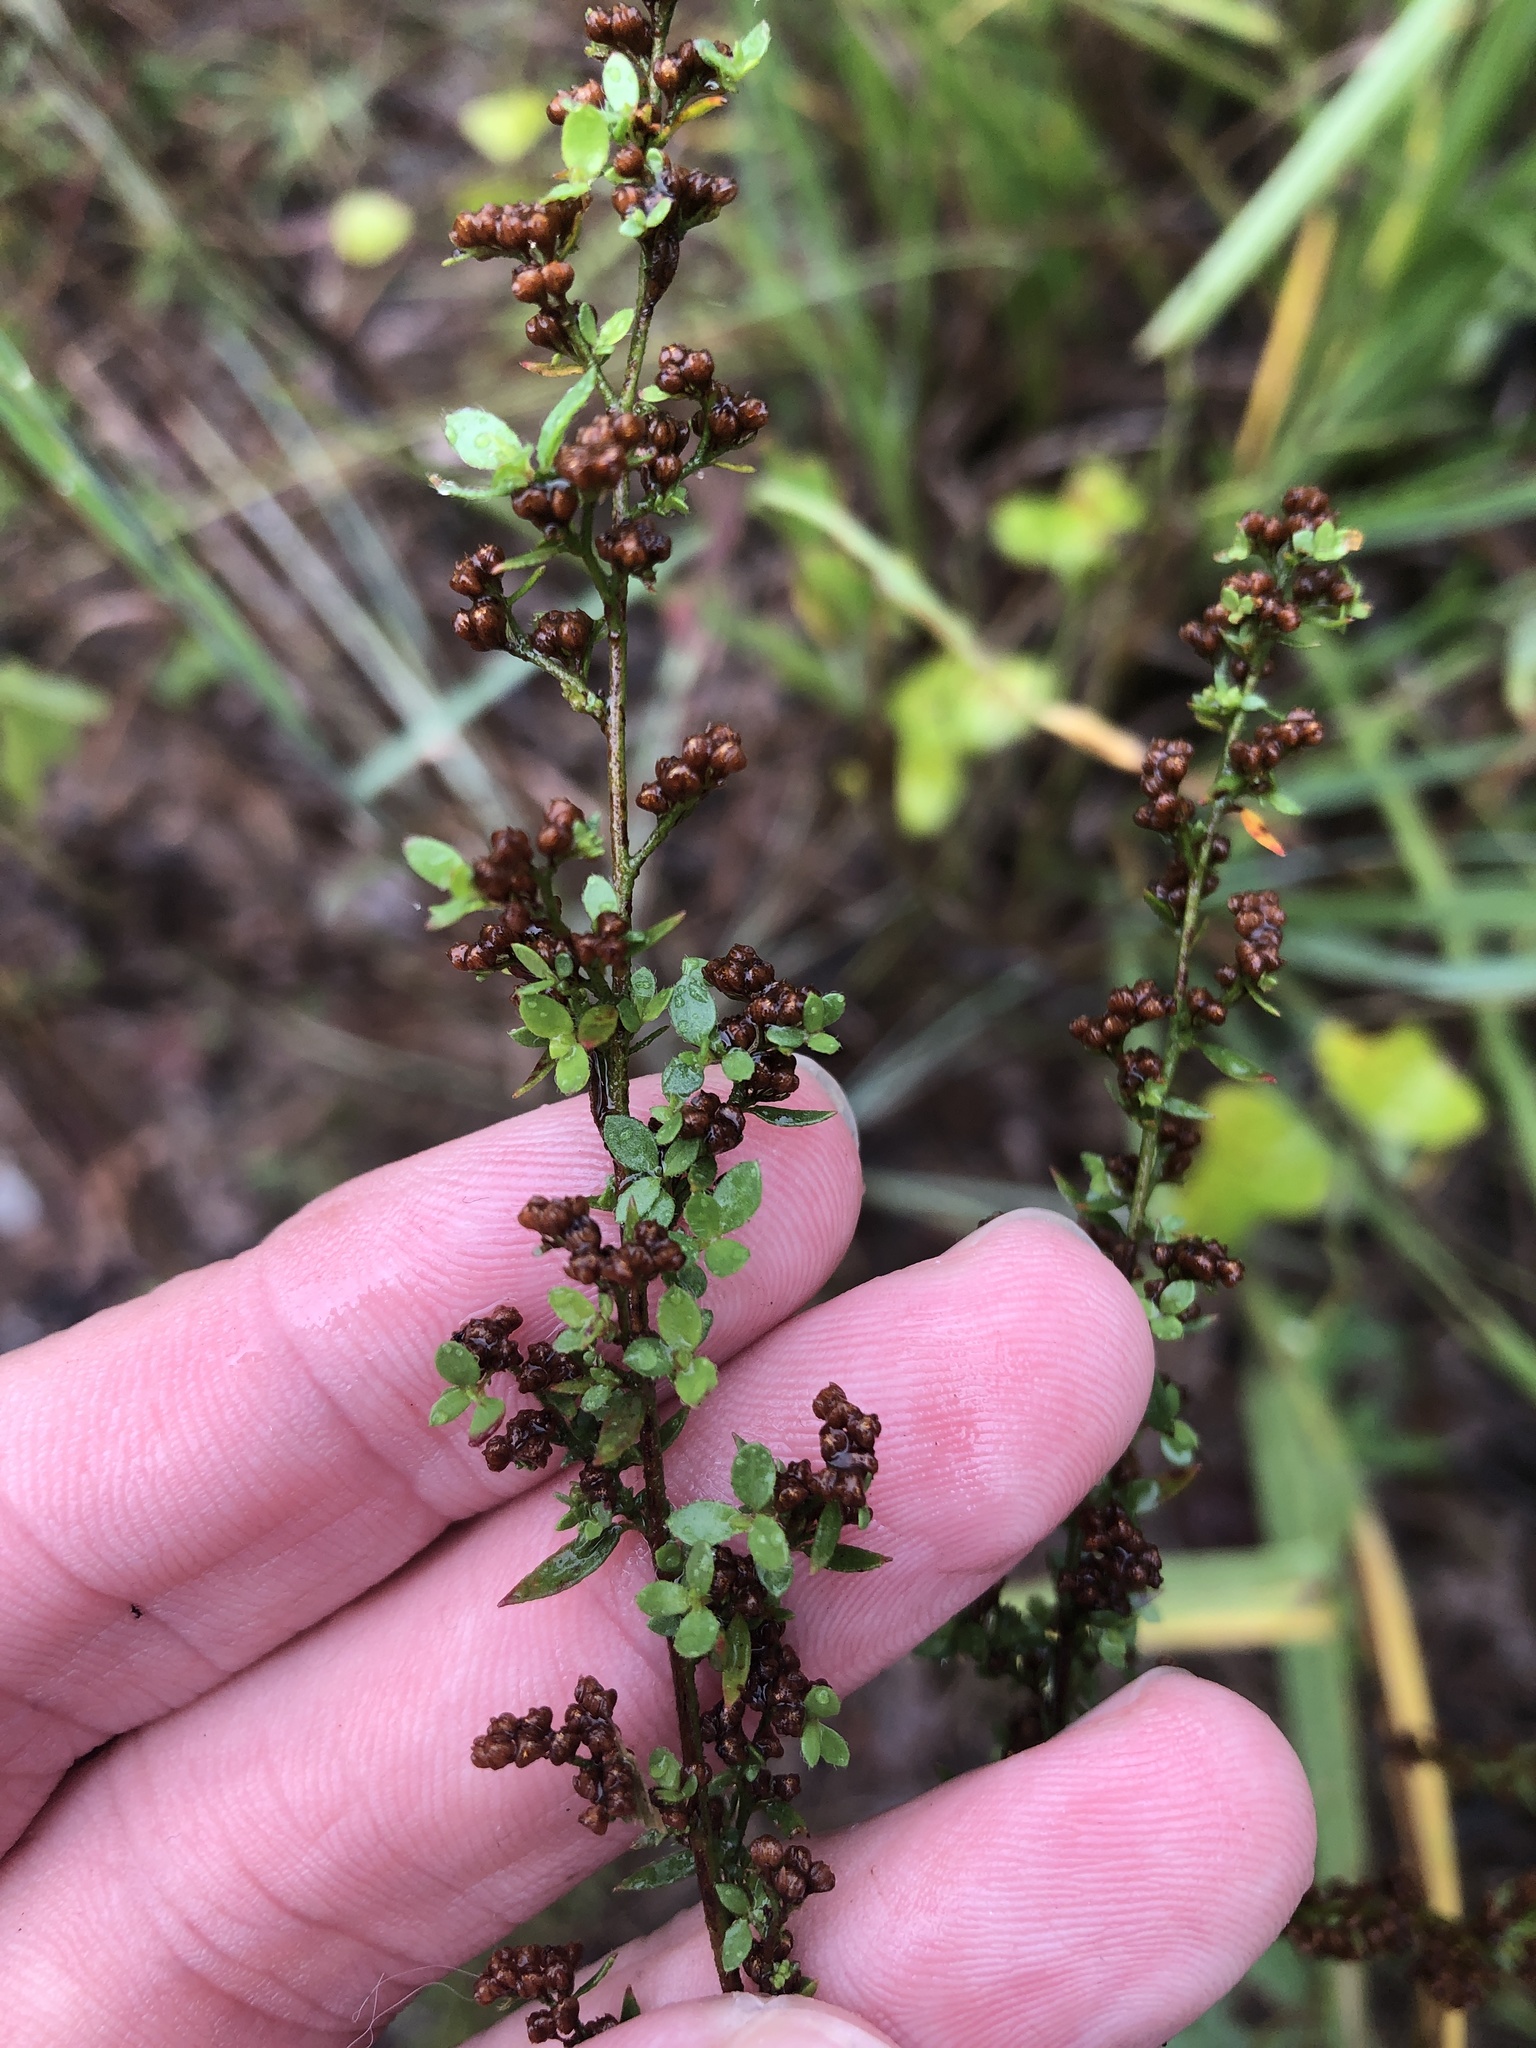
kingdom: Plantae
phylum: Tracheophyta
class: Magnoliopsida
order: Malvales
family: Cistaceae
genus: Lechea
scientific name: Lechea mucronata
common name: Hairy pinweed
